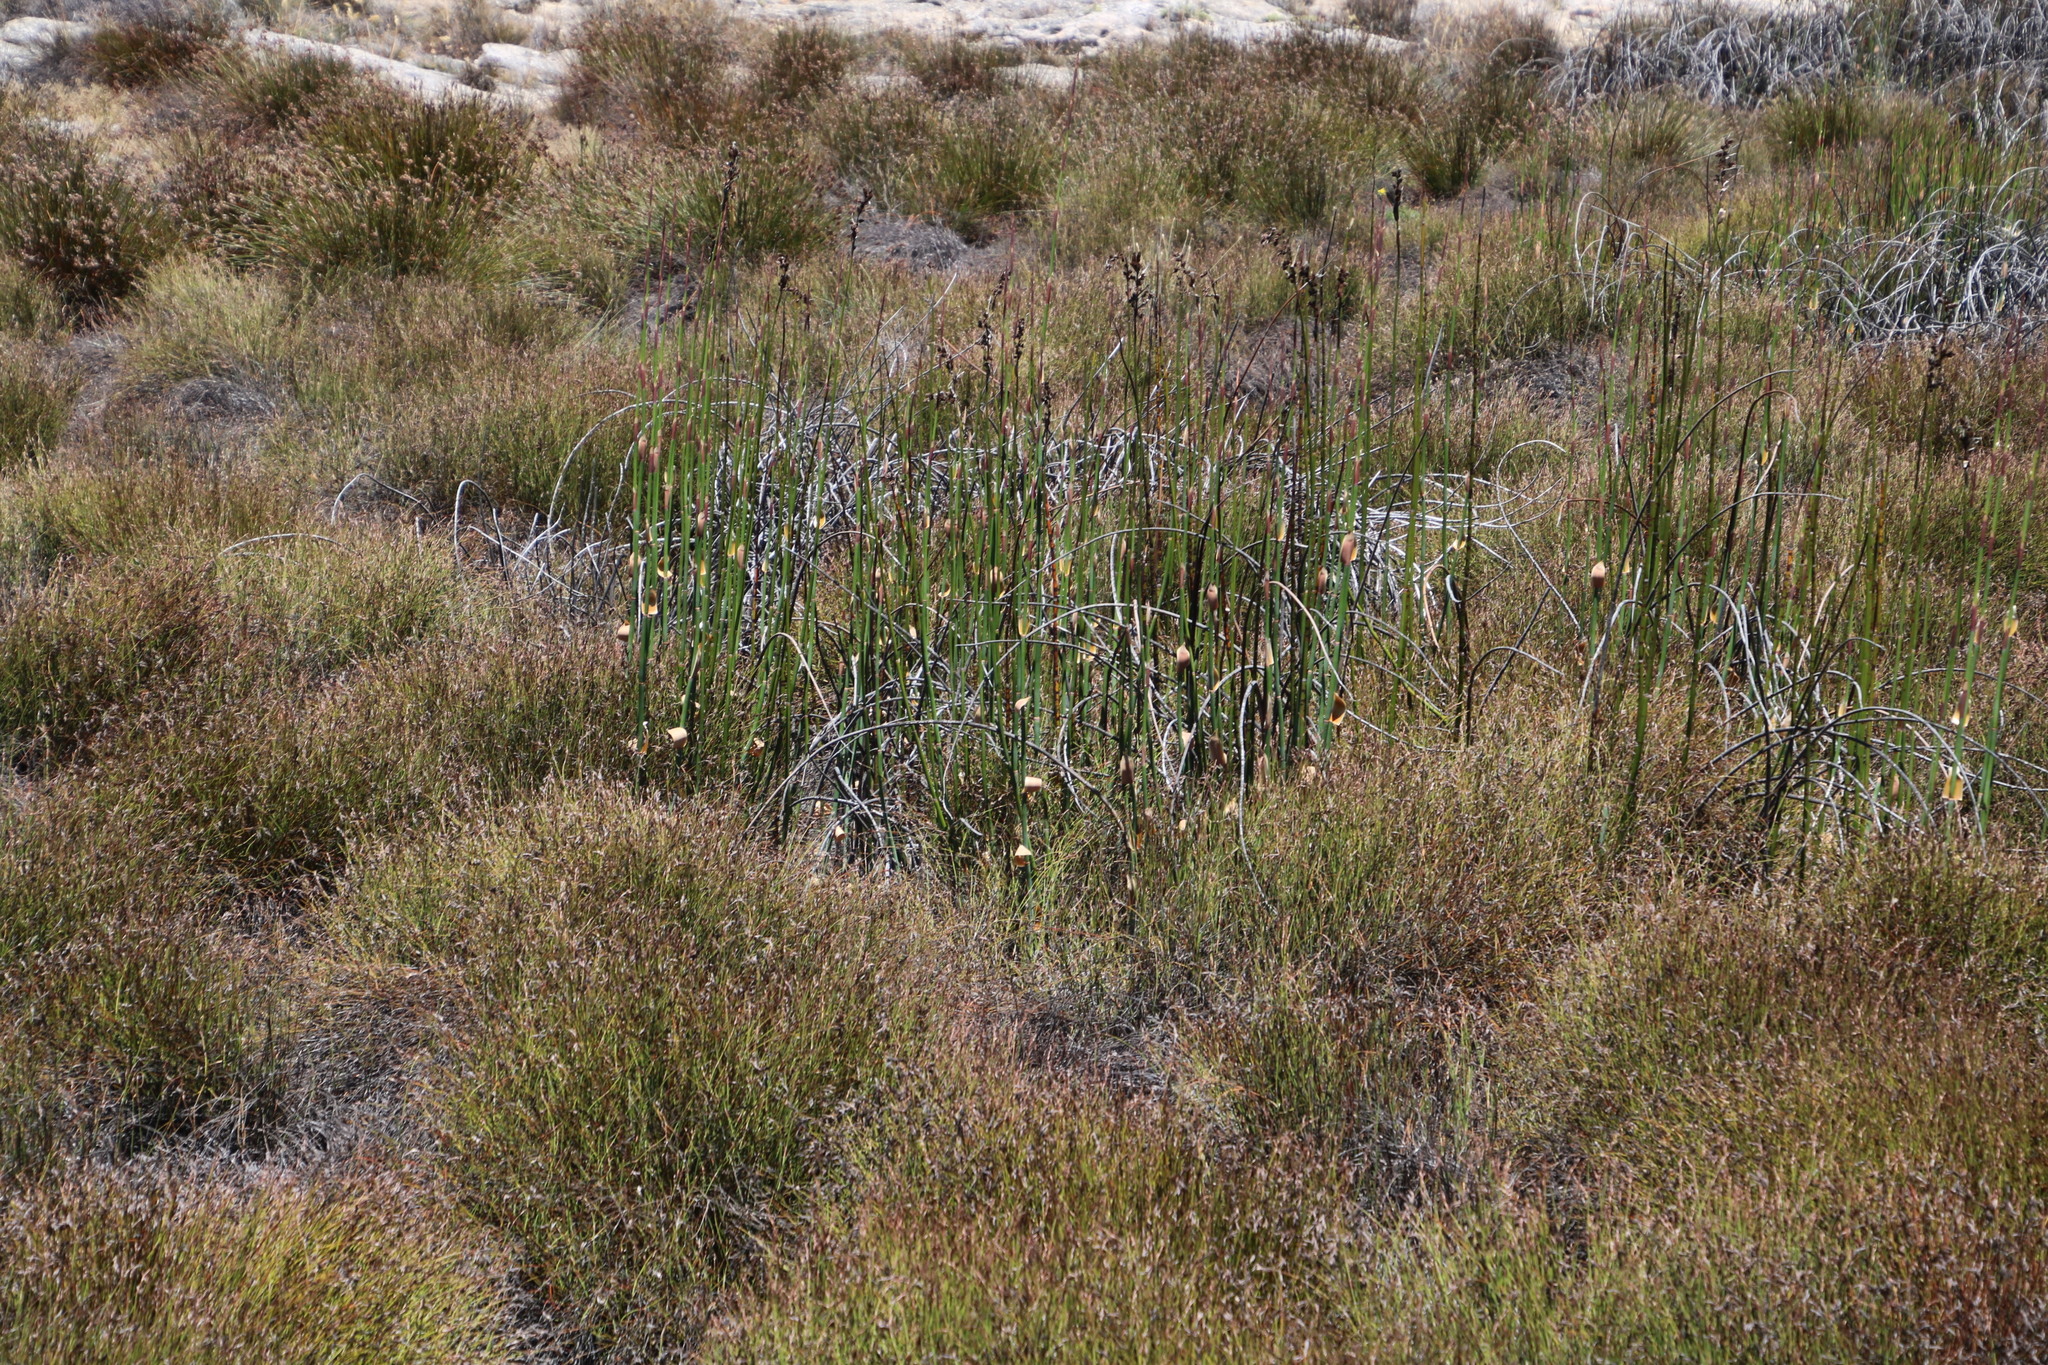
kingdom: Plantae
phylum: Tracheophyta
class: Liliopsida
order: Poales
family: Restionaceae
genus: Askidiosperma
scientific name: Askidiosperma insigne
